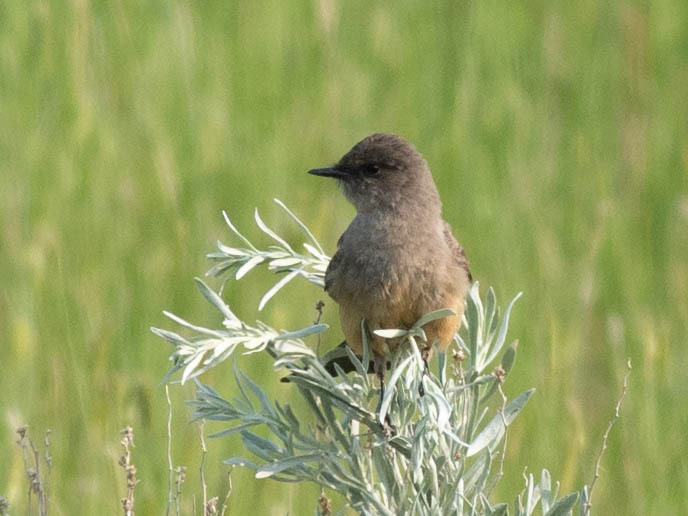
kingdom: Animalia
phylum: Chordata
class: Aves
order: Passeriformes
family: Tyrannidae
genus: Sayornis
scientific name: Sayornis saya
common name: Say's phoebe
